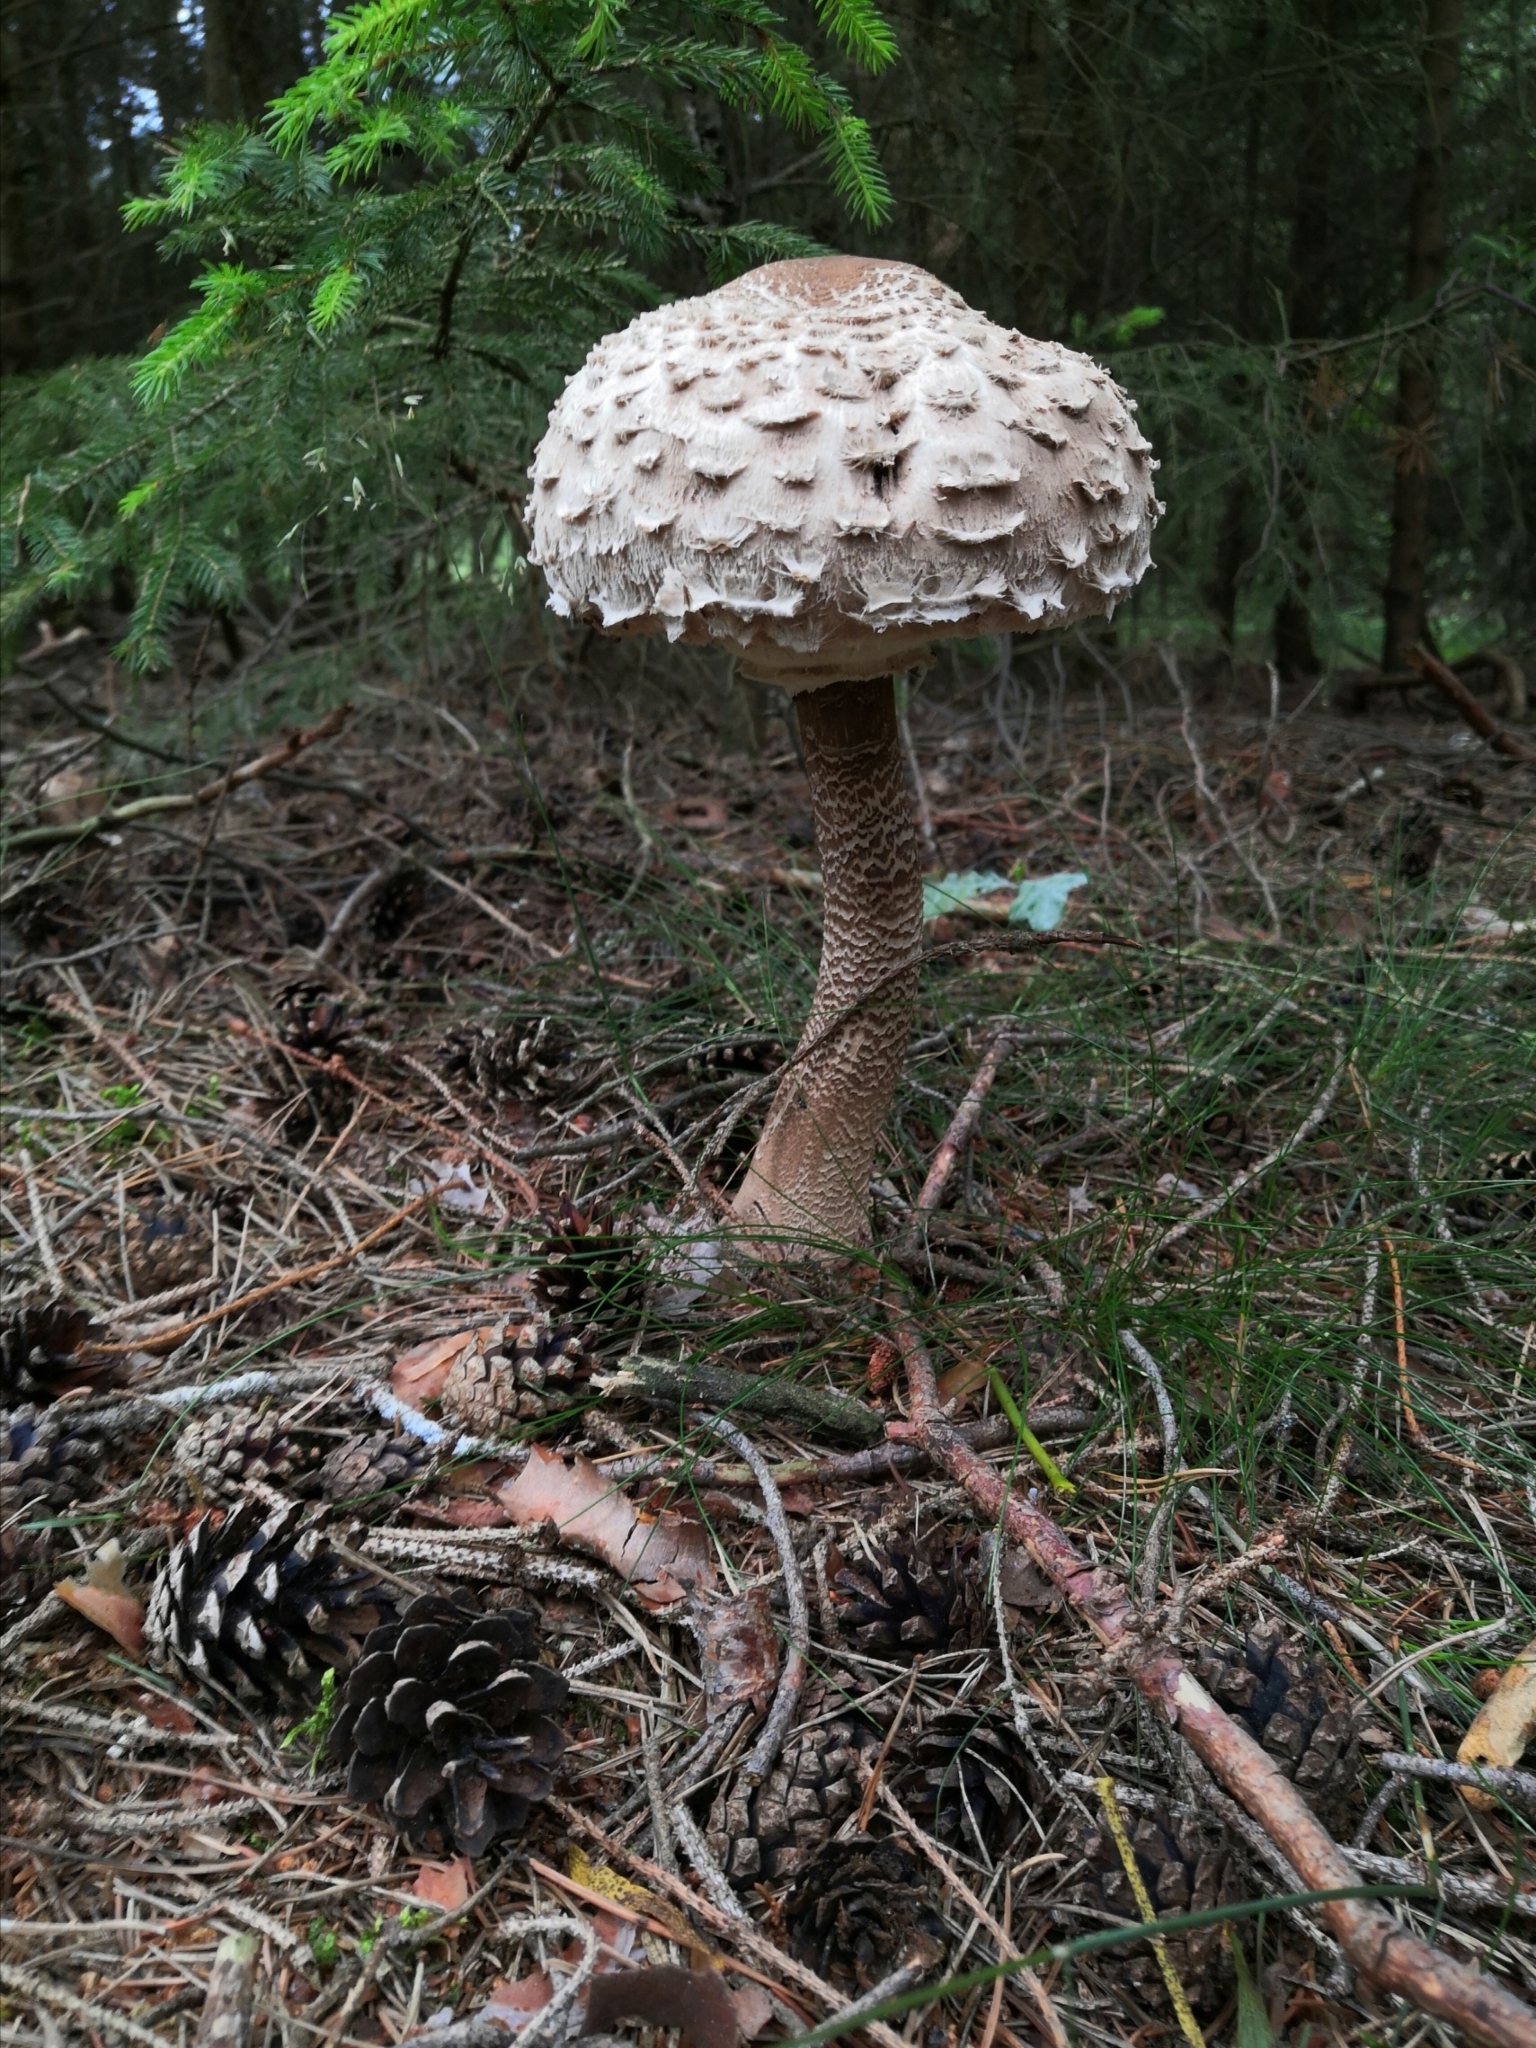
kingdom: Fungi
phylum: Basidiomycota
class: Agaricomycetes
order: Agaricales
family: Agaricaceae
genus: Macrolepiota
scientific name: Macrolepiota procera
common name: Parasol
